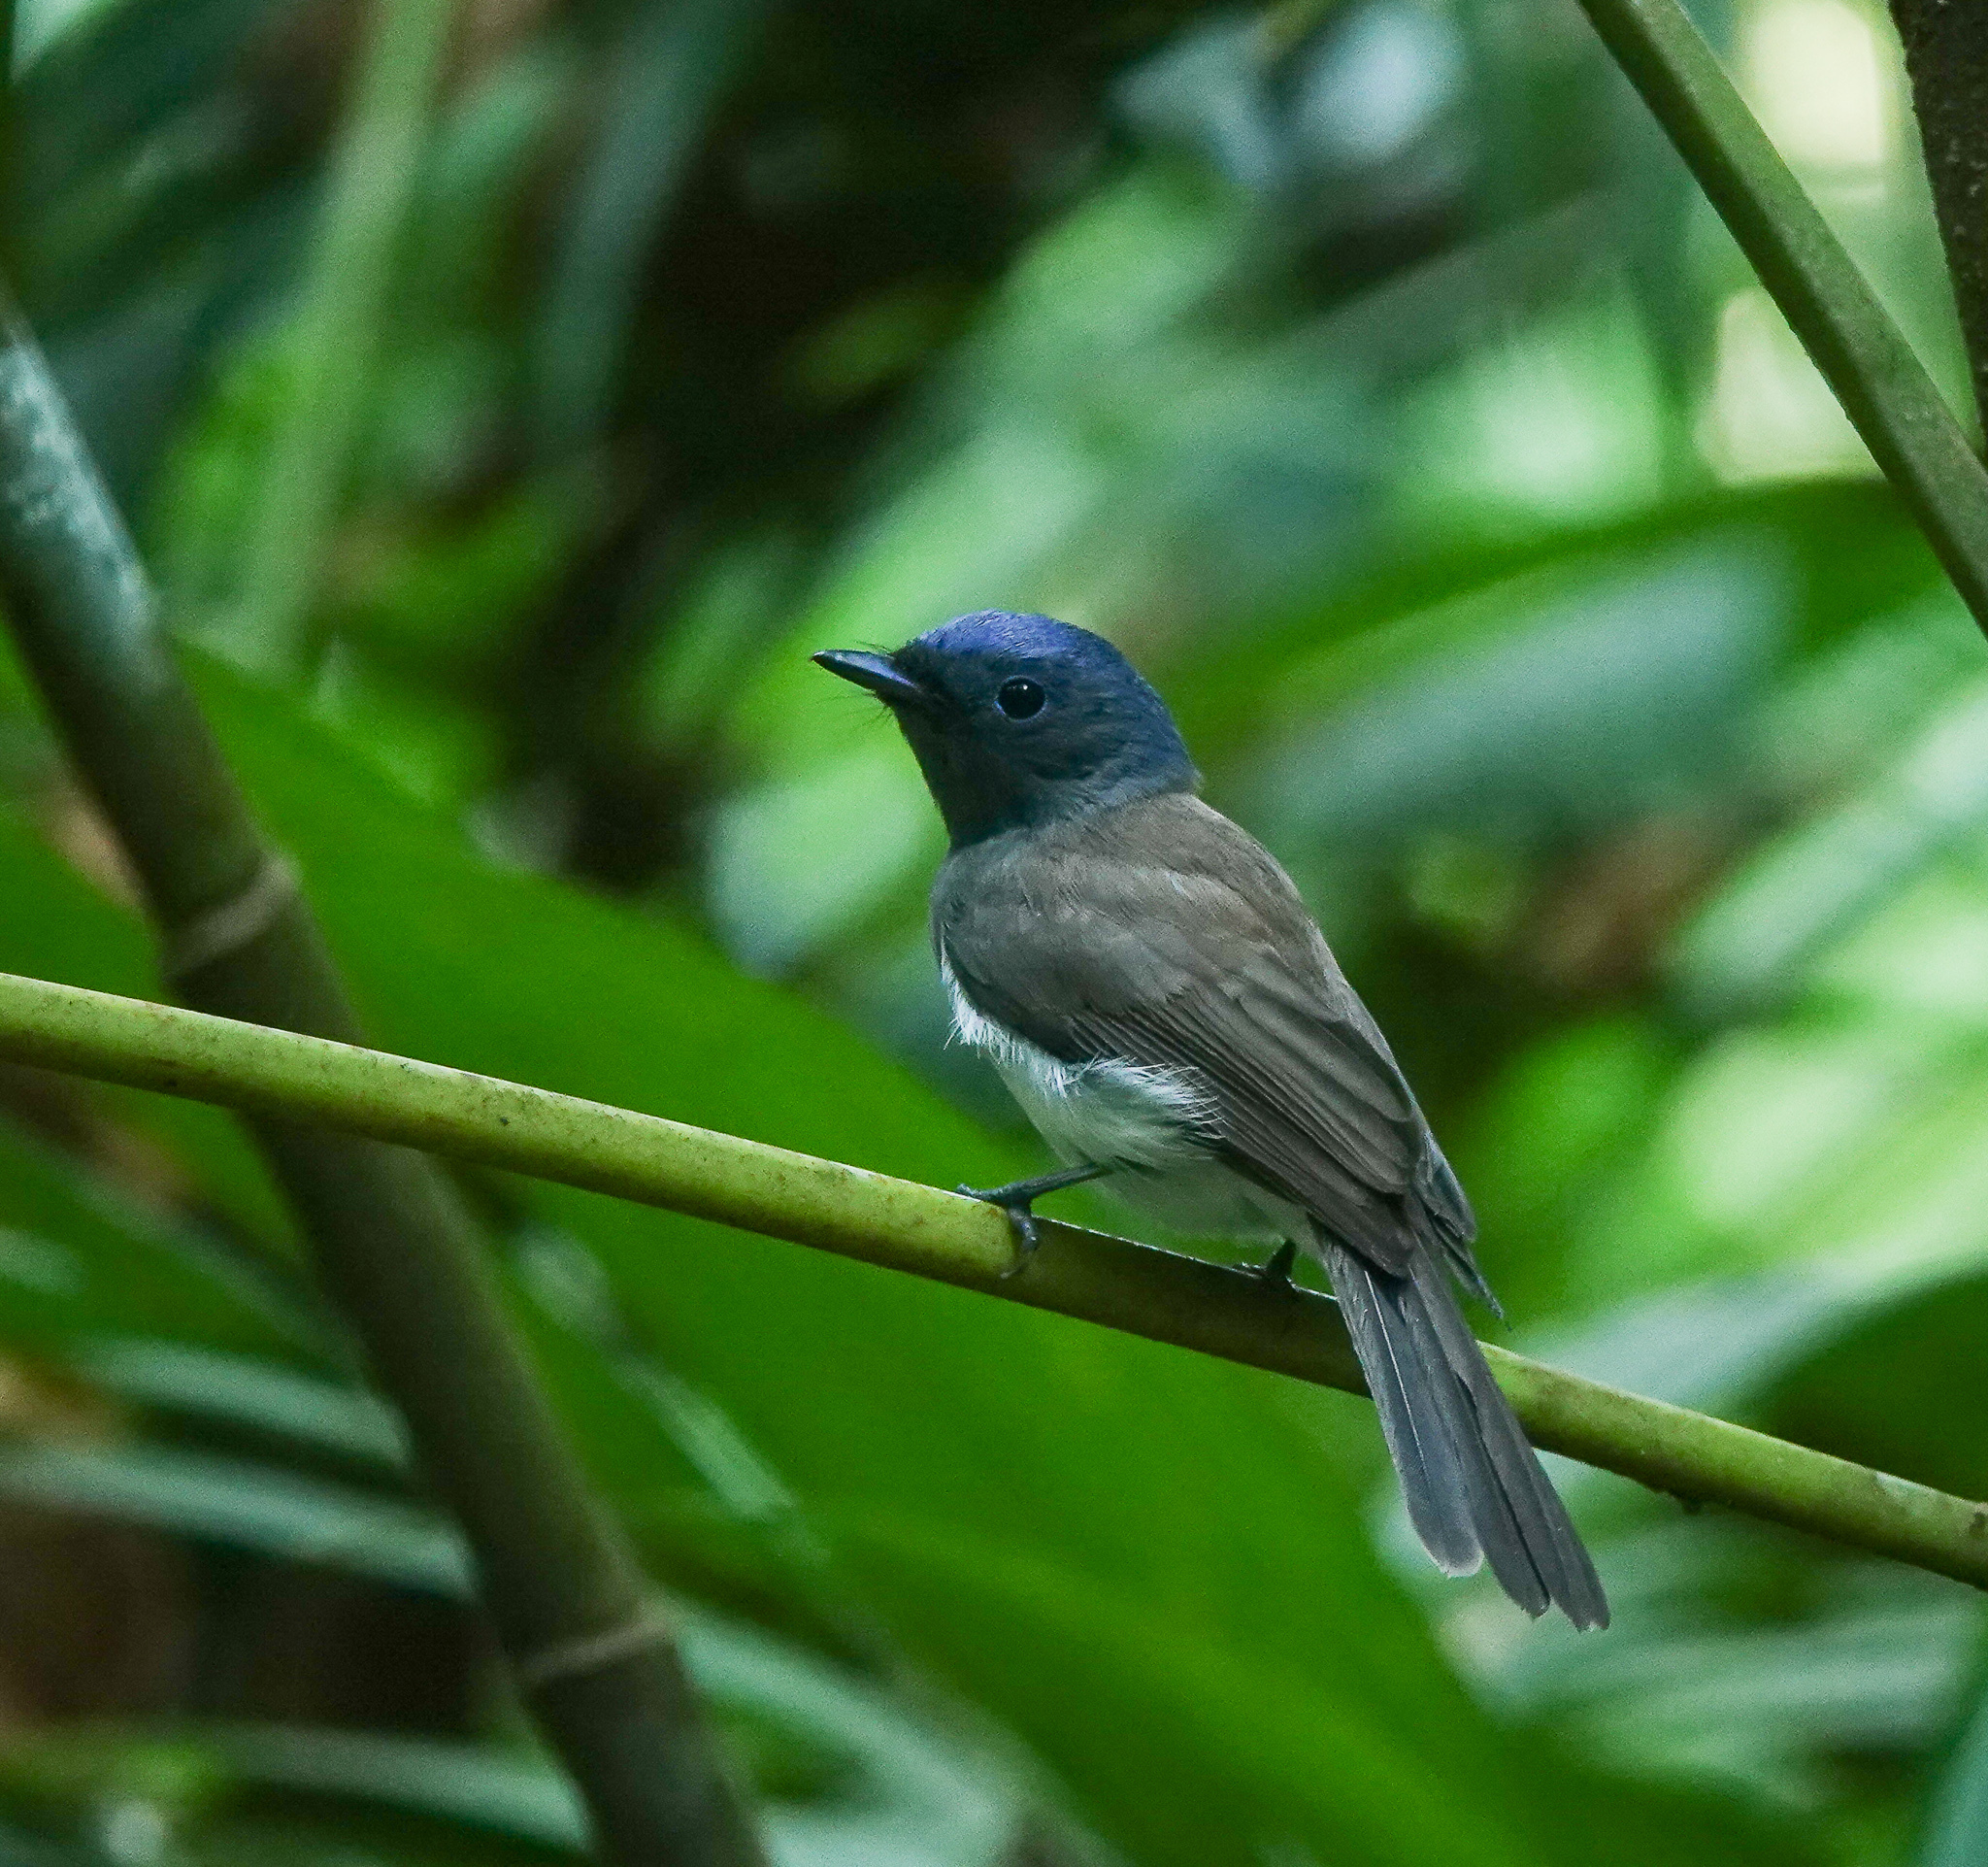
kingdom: Animalia
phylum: Chordata
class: Aves
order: Passeriformes
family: Monarchidae
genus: Hypothymis
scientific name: Hypothymis azurea
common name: Black-naped monarch
